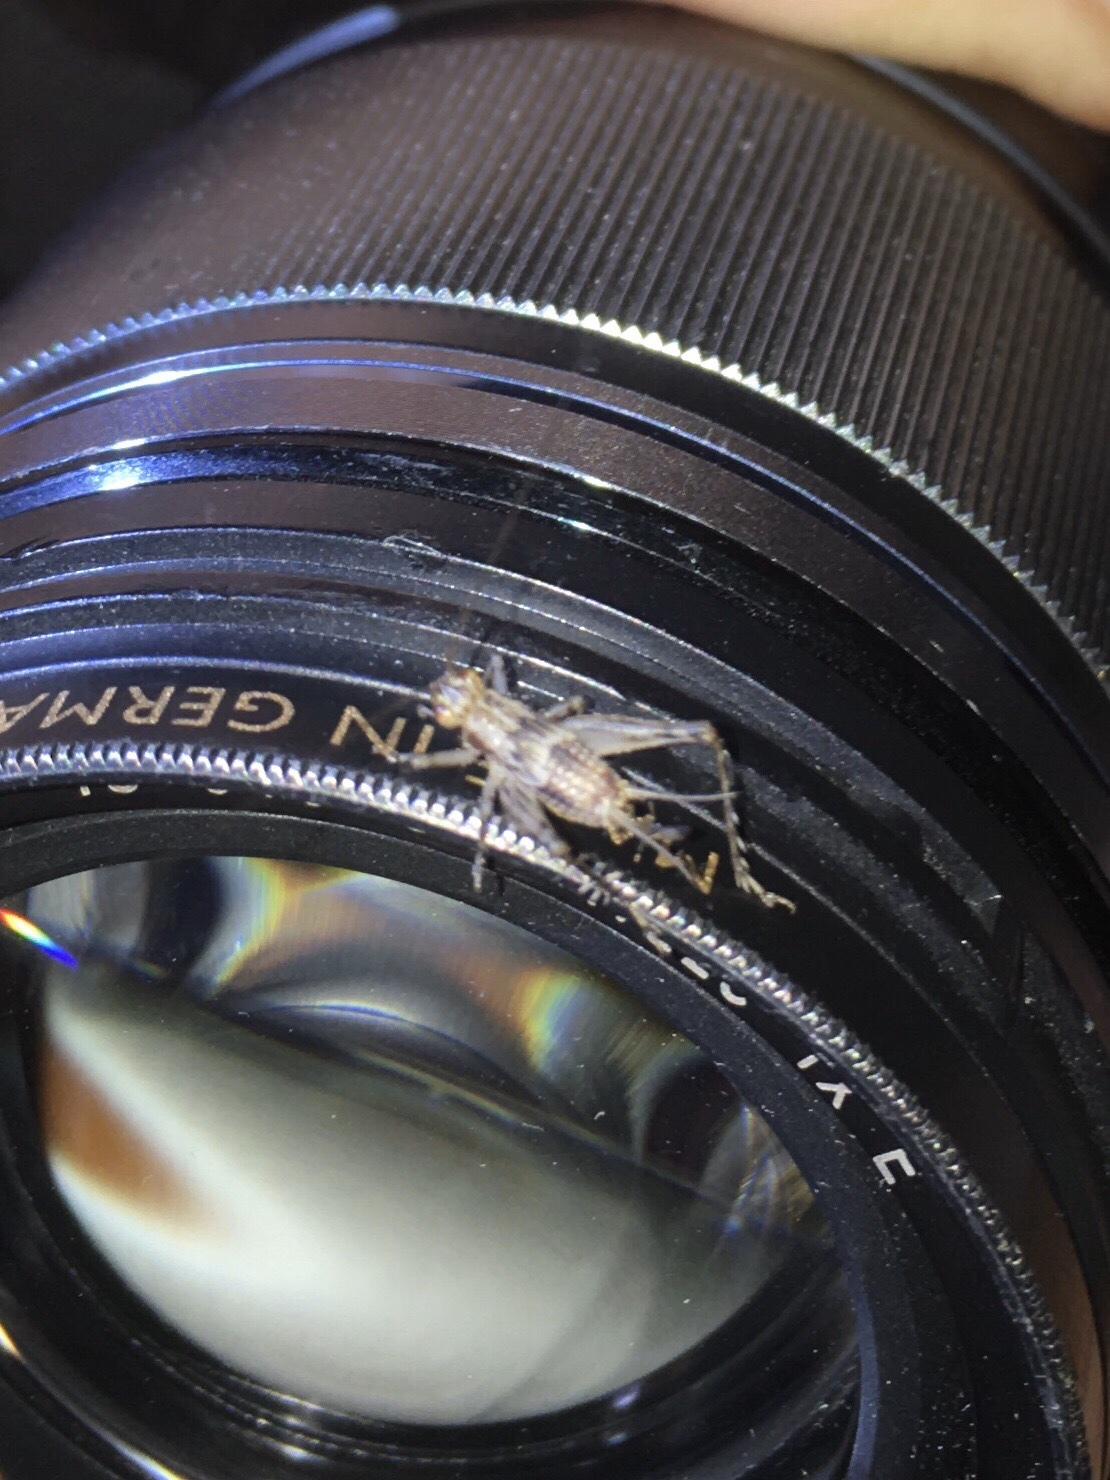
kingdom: Animalia
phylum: Arthropoda
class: Insecta
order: Orthoptera
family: Trigonidiidae
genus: Anaxipha
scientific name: Anaxipha exigua
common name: Say's bush cricket
